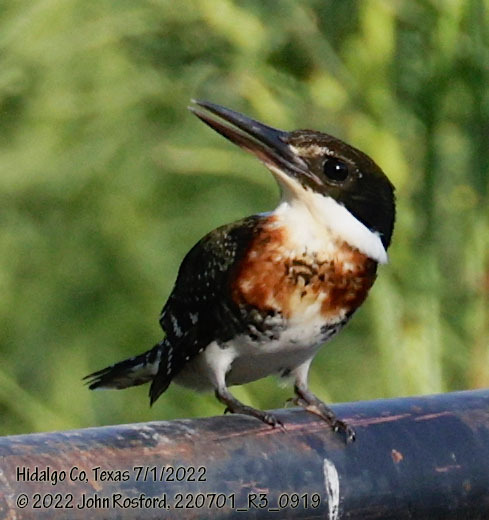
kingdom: Animalia
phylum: Chordata
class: Aves
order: Coraciiformes
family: Alcedinidae
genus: Chloroceryle
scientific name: Chloroceryle americana
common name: Green kingfisher
